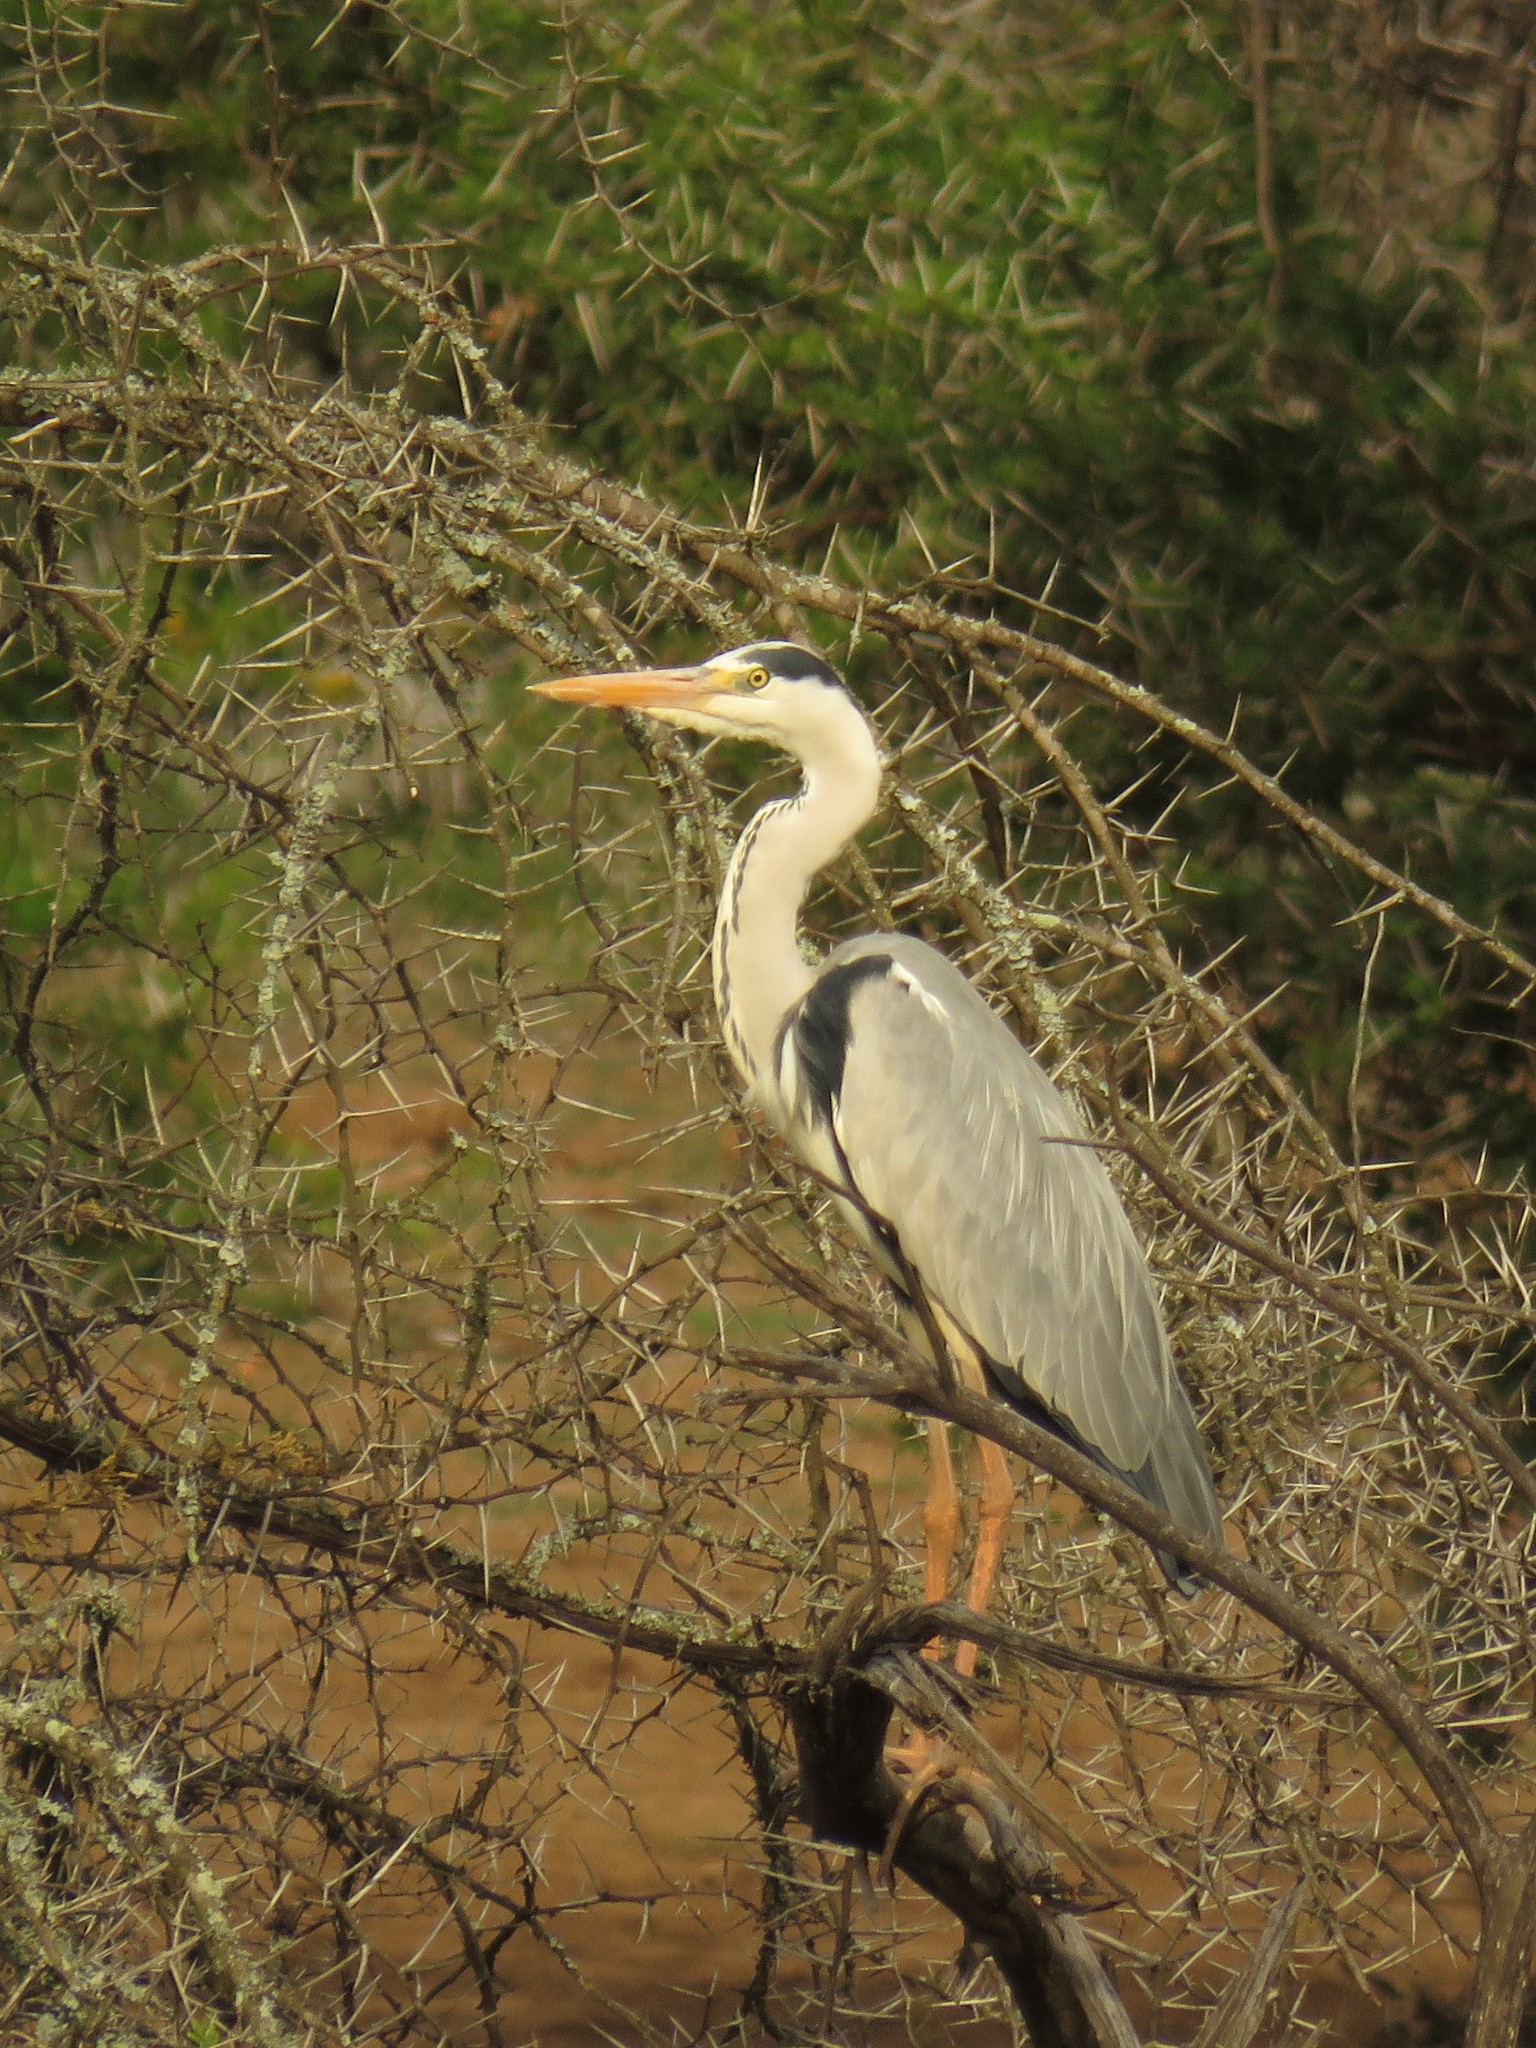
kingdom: Animalia
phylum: Chordata
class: Aves
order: Pelecaniformes
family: Ardeidae
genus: Ardea
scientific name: Ardea cinerea
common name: Grey heron
